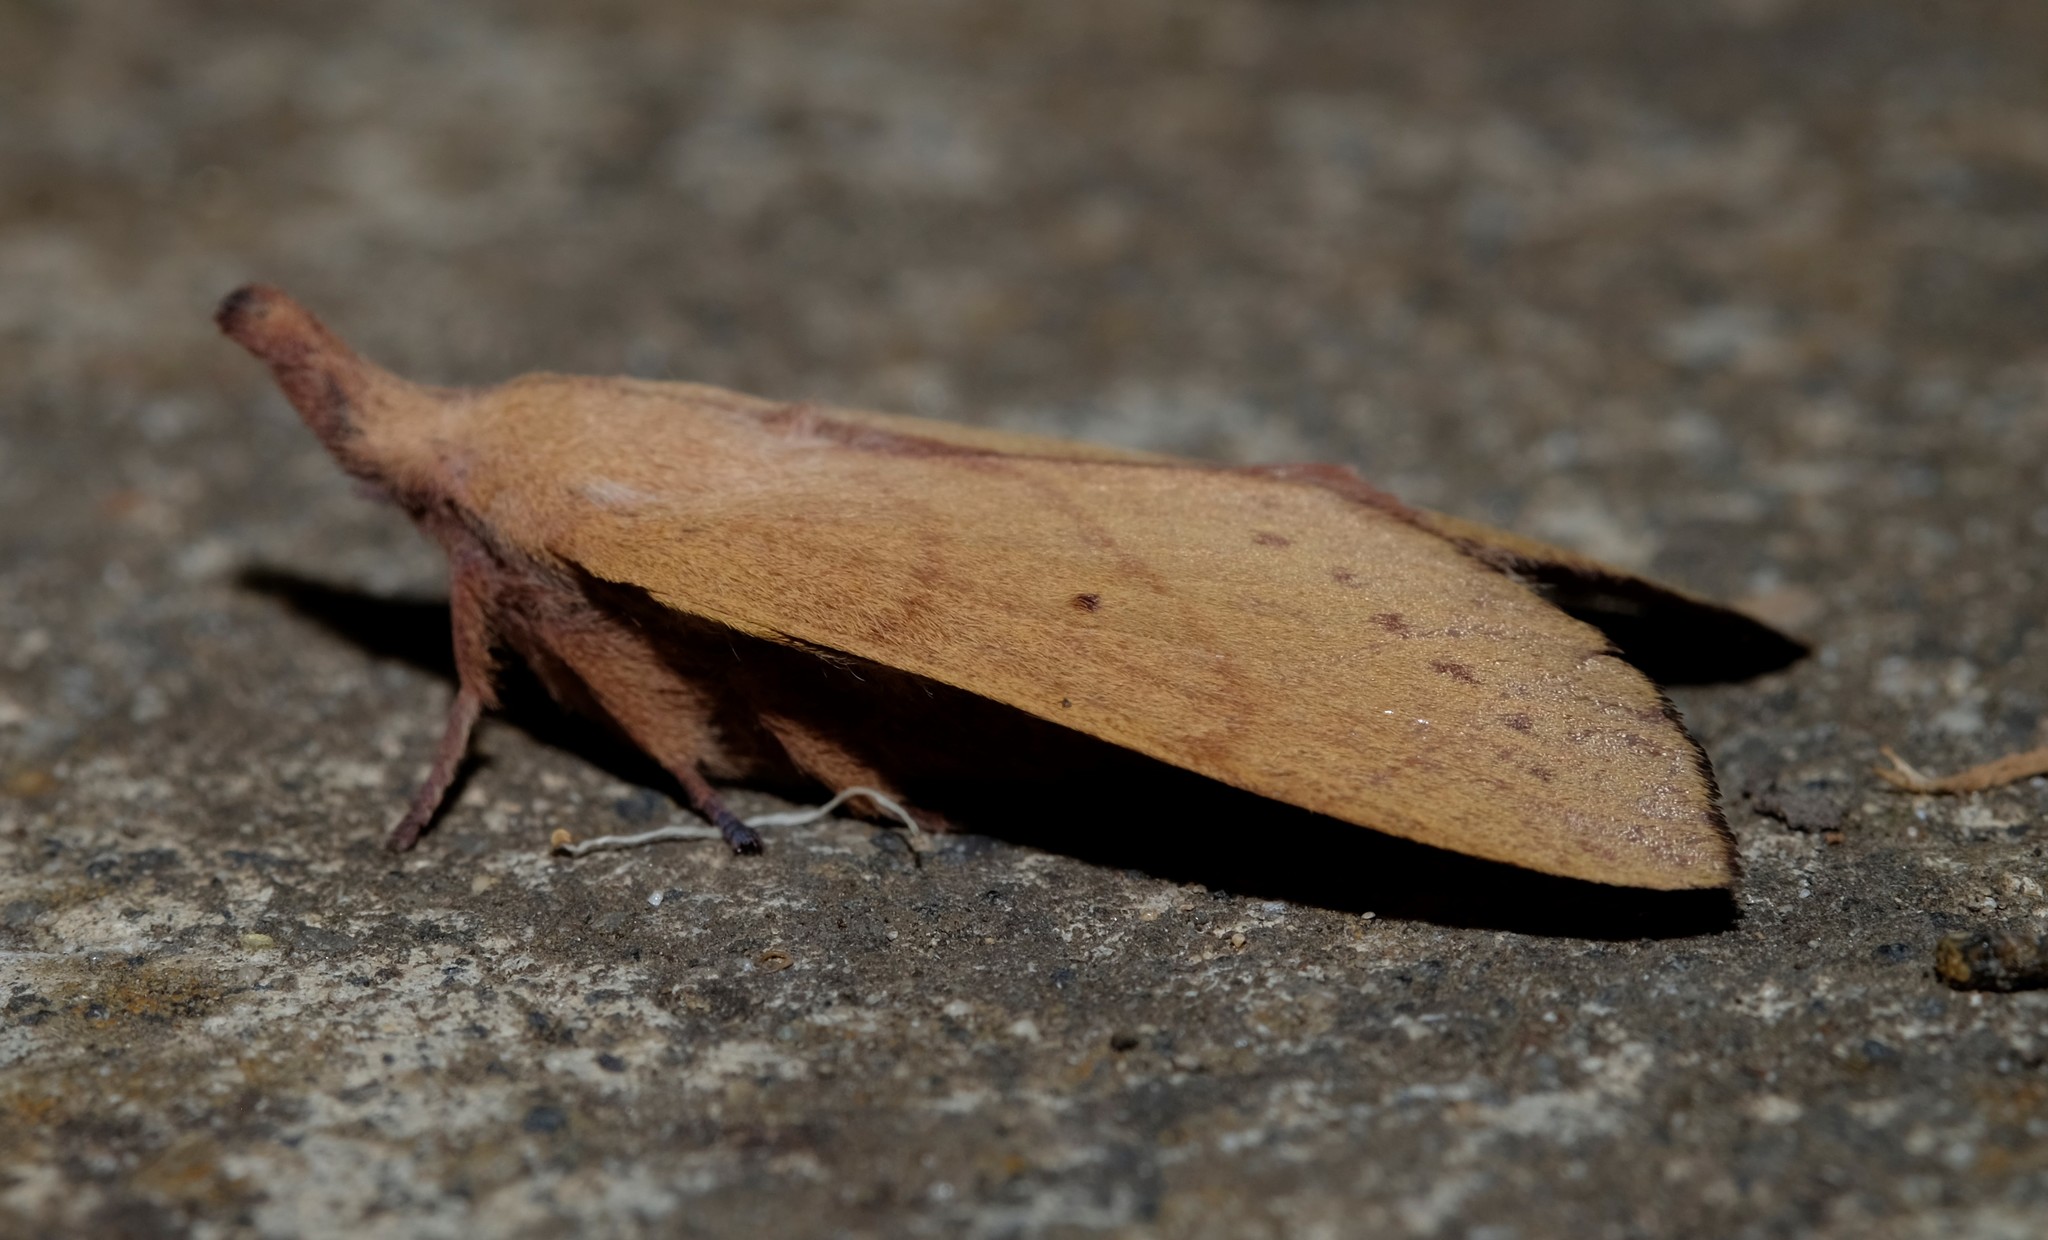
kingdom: Animalia
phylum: Arthropoda
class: Insecta
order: Lepidoptera
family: Lasiocampidae
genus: Pararguda
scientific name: Pararguda nasuta
